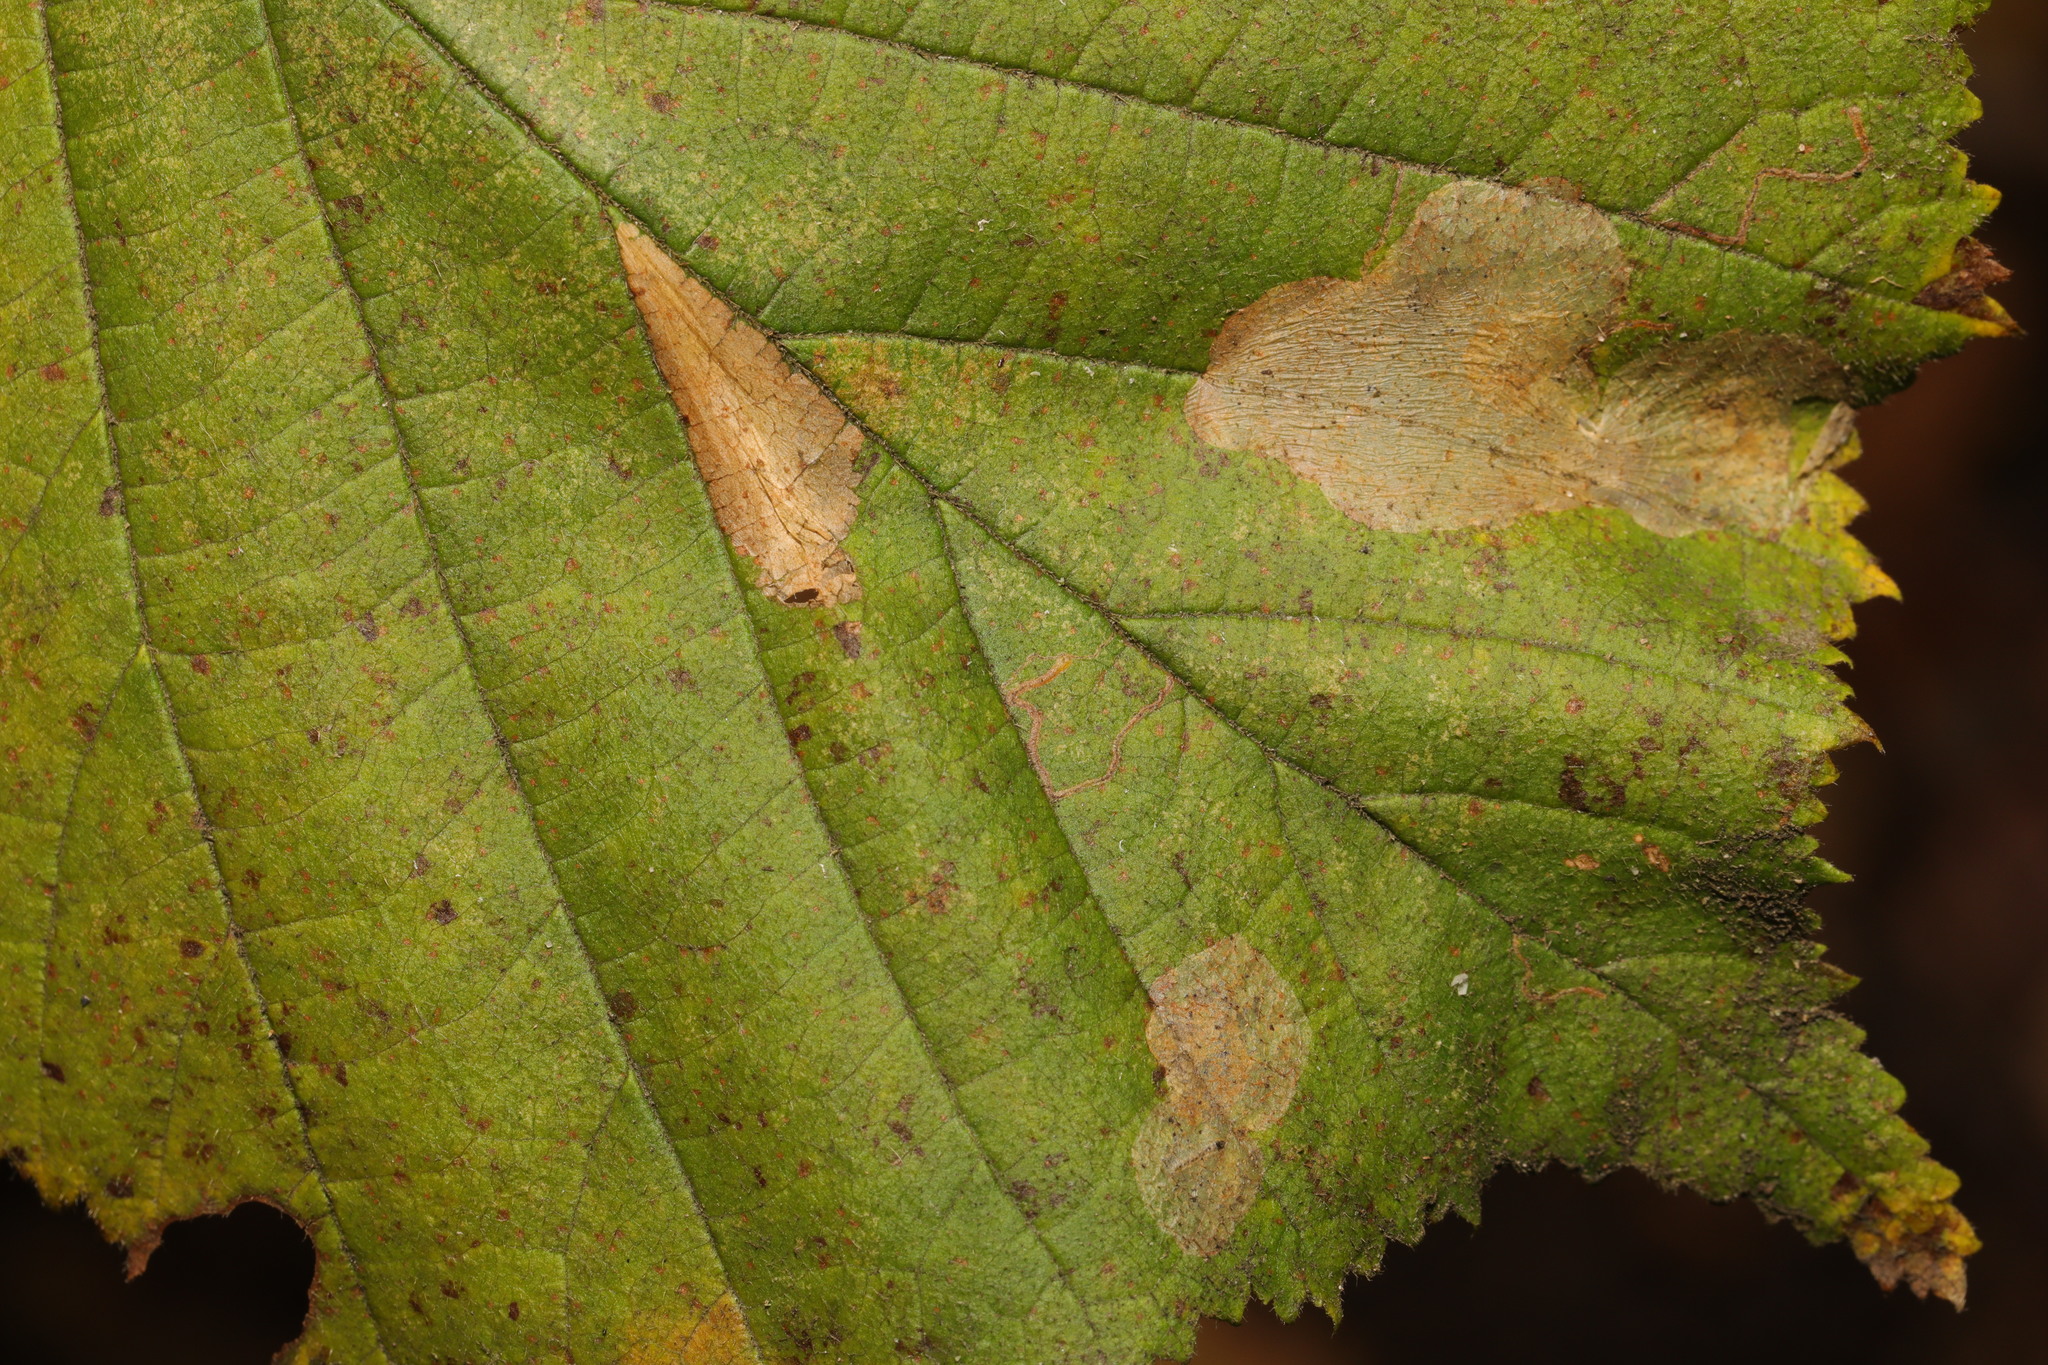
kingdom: Animalia
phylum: Arthropoda
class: Insecta
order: Lepidoptera
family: Gracillariidae
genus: Phyllonorycter
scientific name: Phyllonorycter nicellii
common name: Red hazel midget
